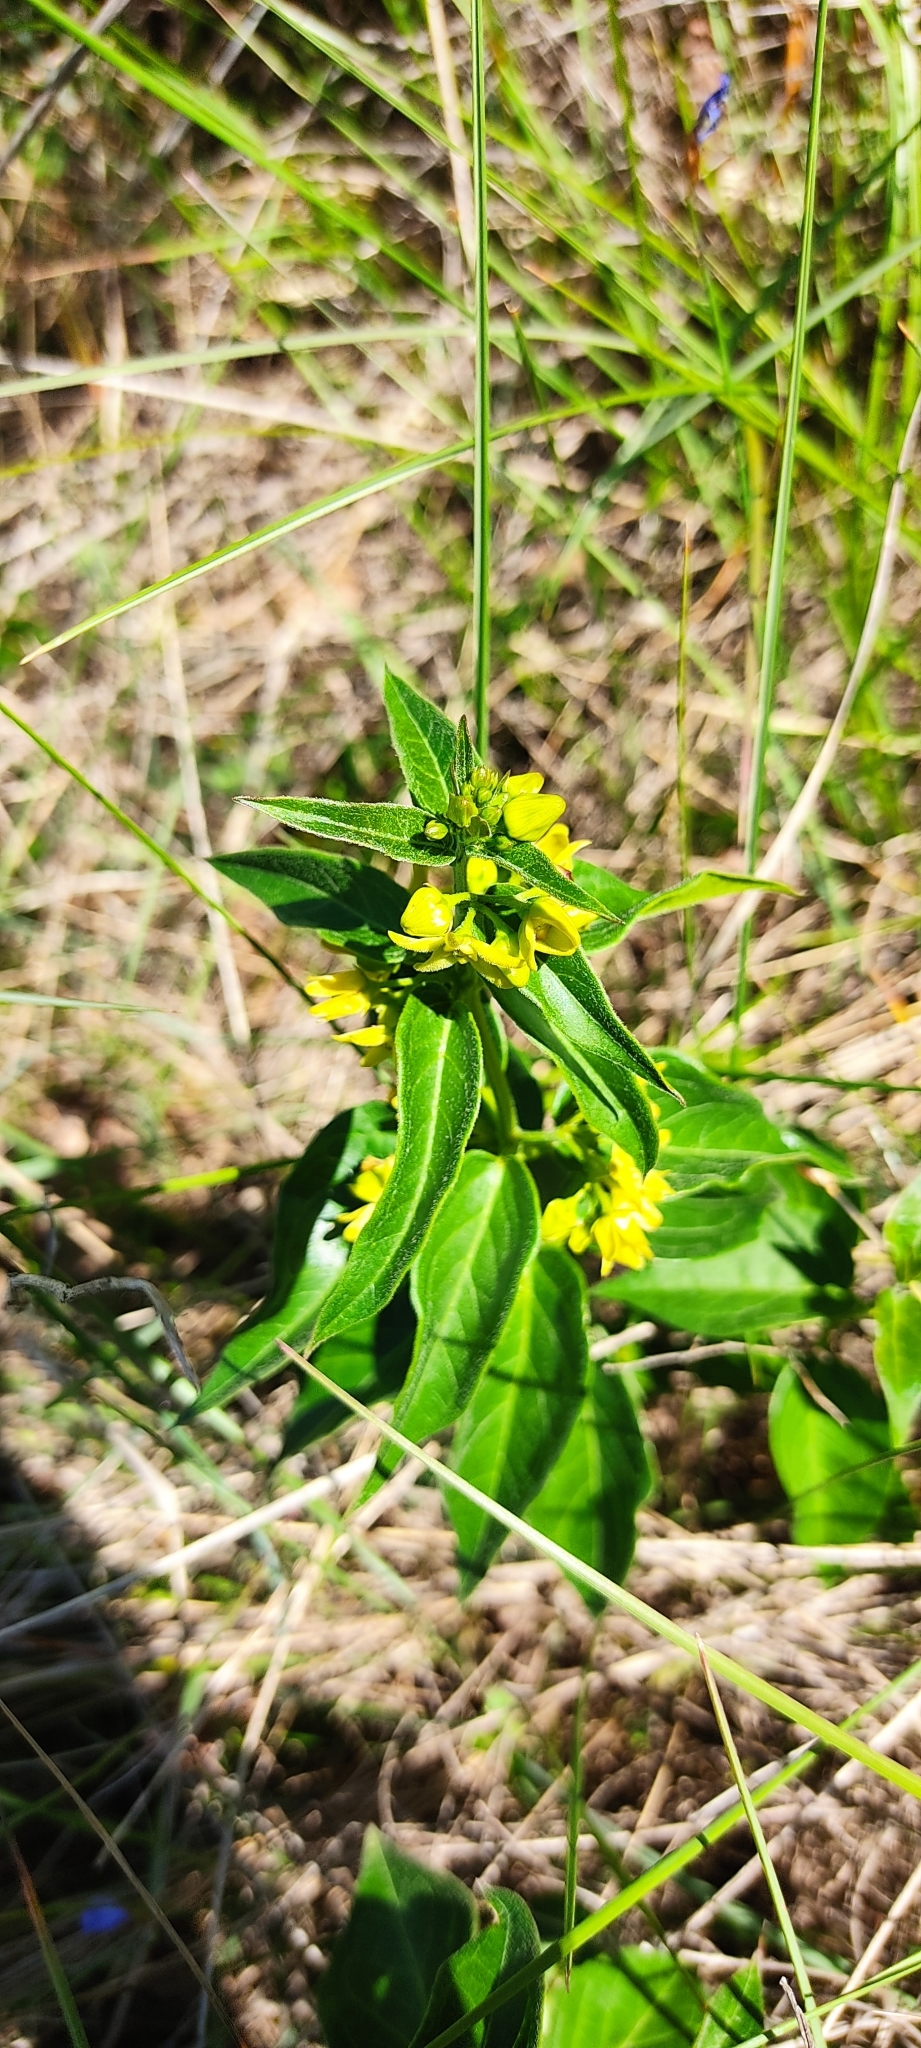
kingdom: Plantae
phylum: Tracheophyta
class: Magnoliopsida
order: Gentianales
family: Apocynaceae
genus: Vincetoxicum
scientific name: Vincetoxicum hirundinaria
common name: White swallowwort
